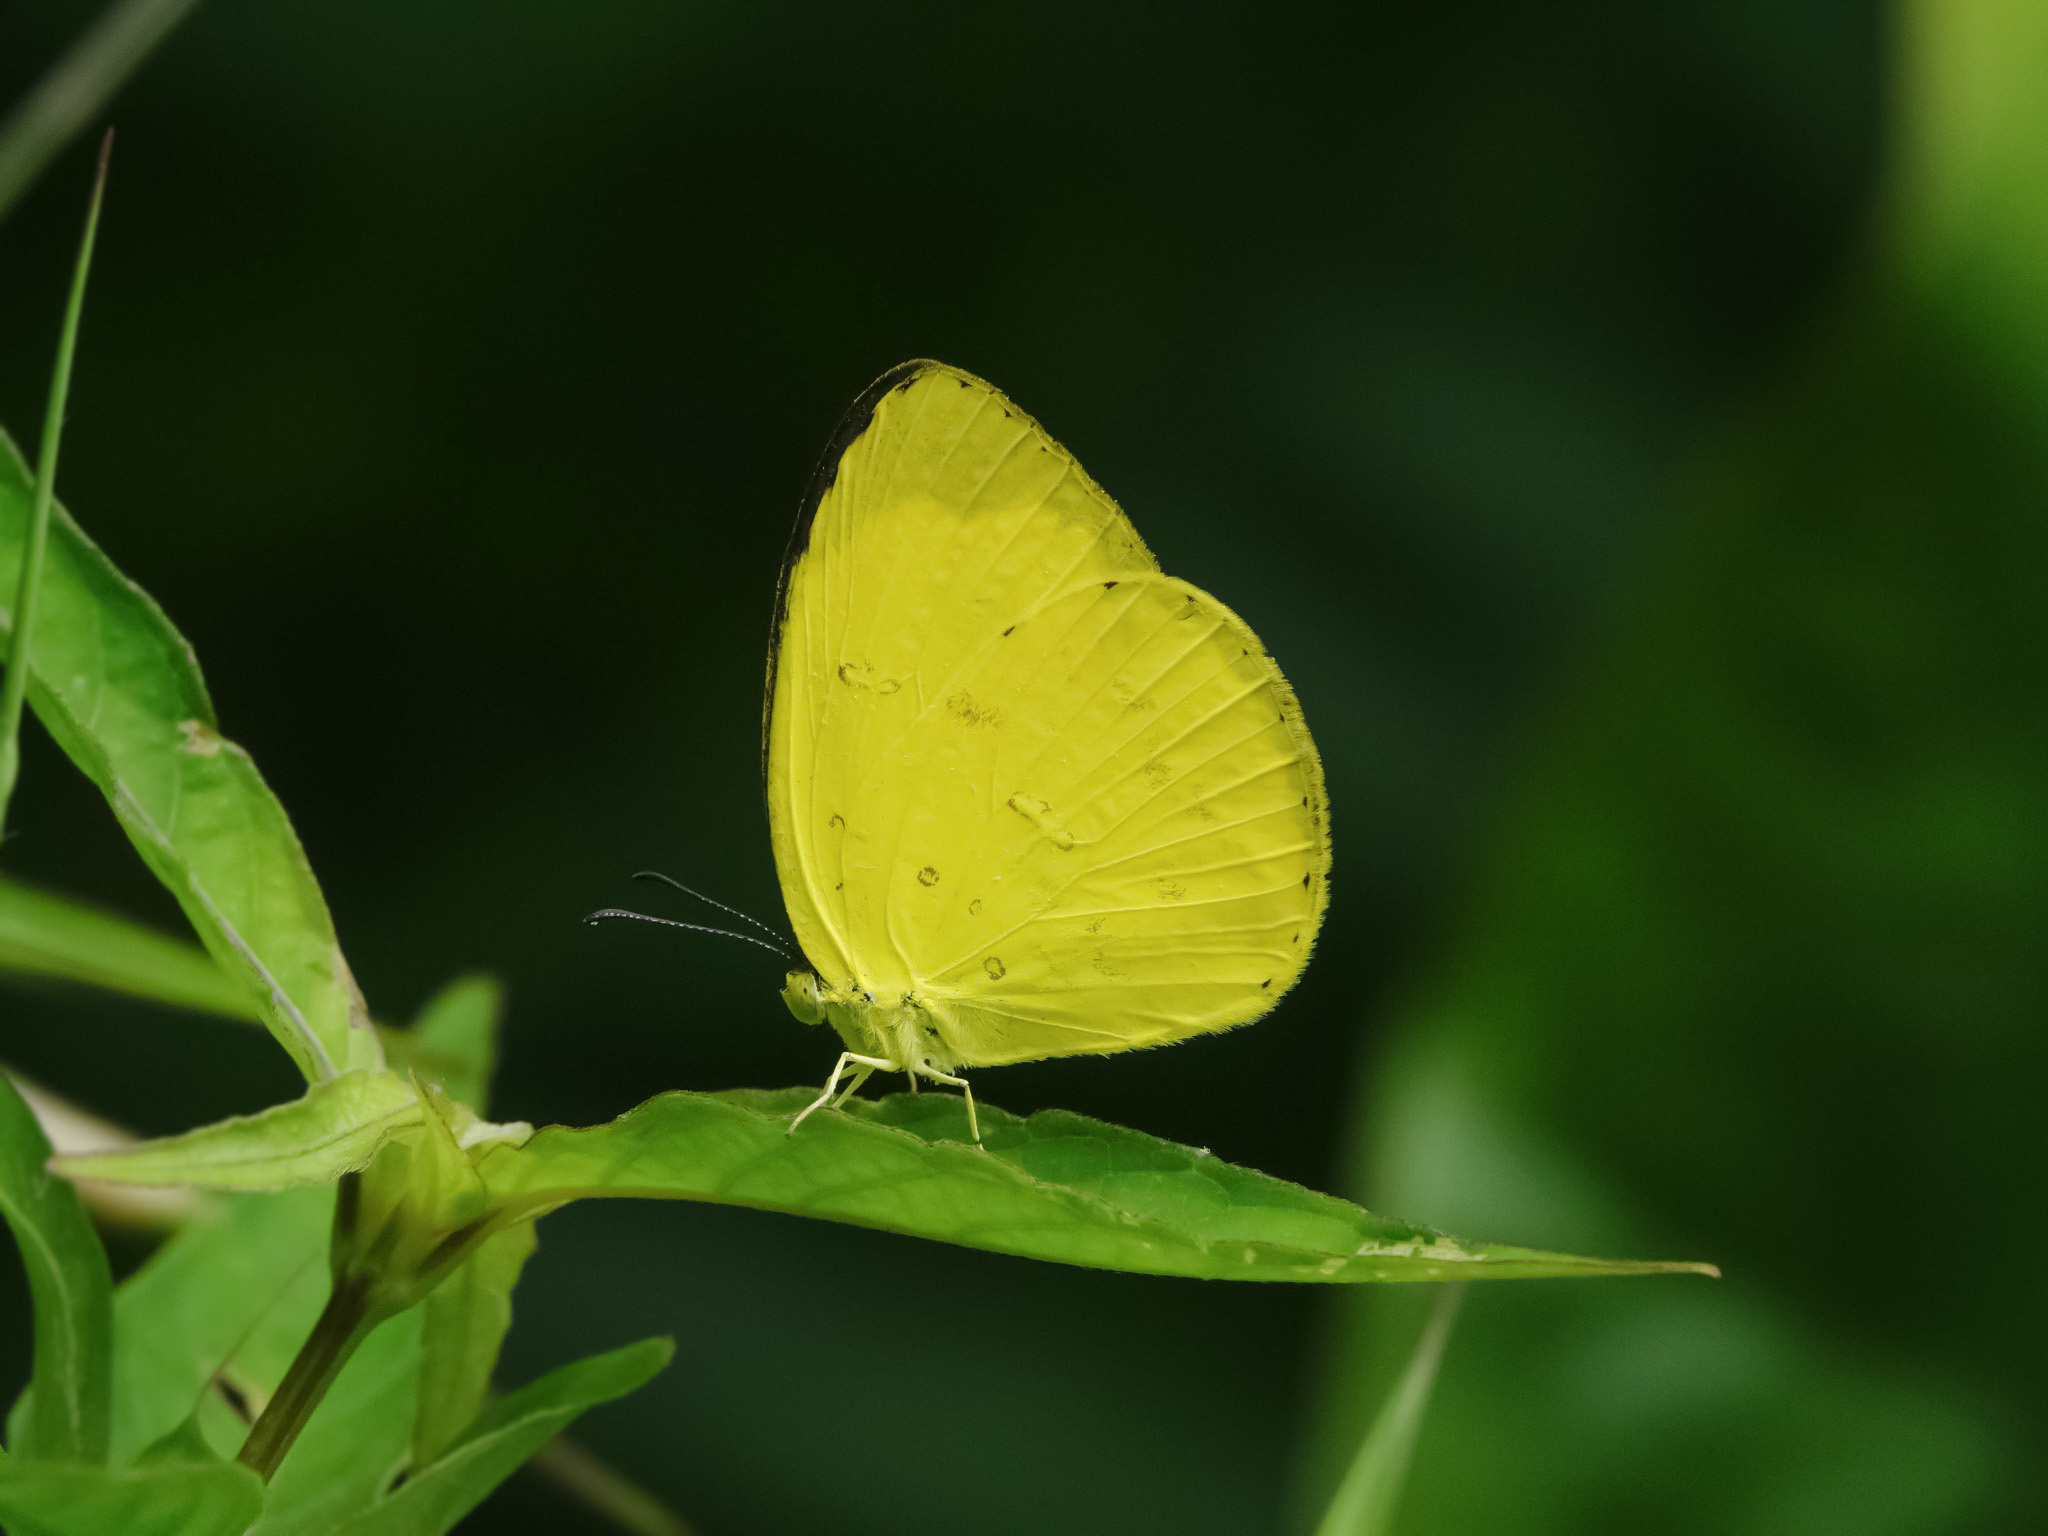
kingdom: Animalia
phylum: Arthropoda
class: Insecta
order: Lepidoptera
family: Pieridae
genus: Eurema
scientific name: Eurema hecabe
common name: Pale grass yellow
